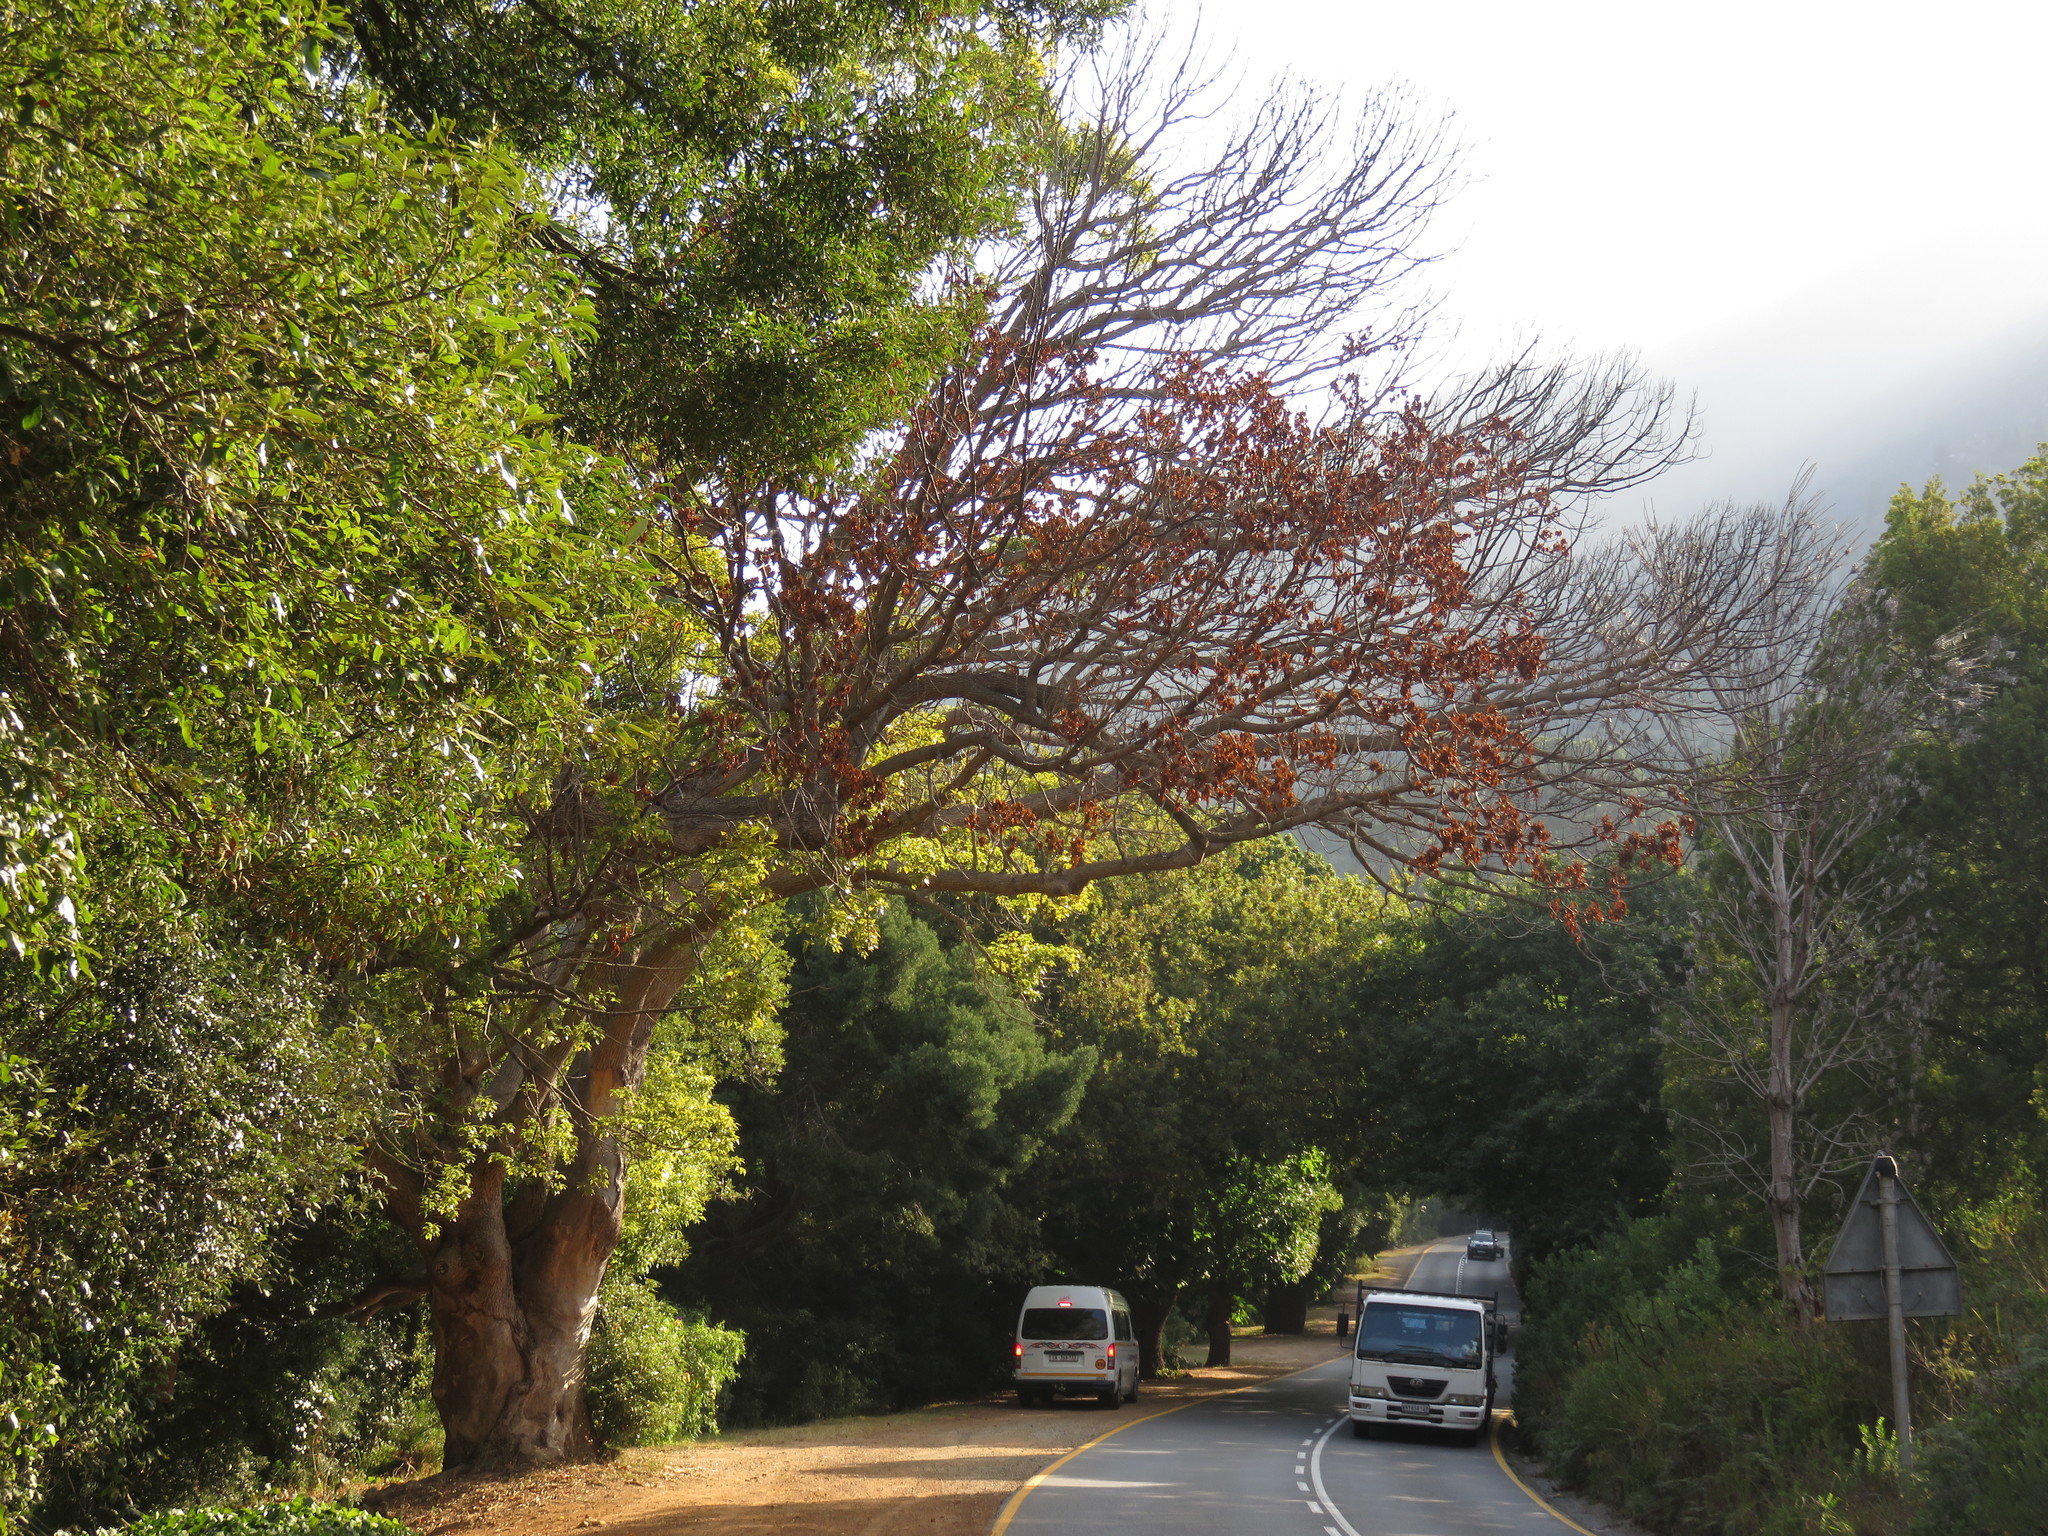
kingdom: Plantae
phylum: Tracheophyta
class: Magnoliopsida
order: Laurales
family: Lauraceae
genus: Cinnamomum
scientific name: Cinnamomum camphora
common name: Camphortree
